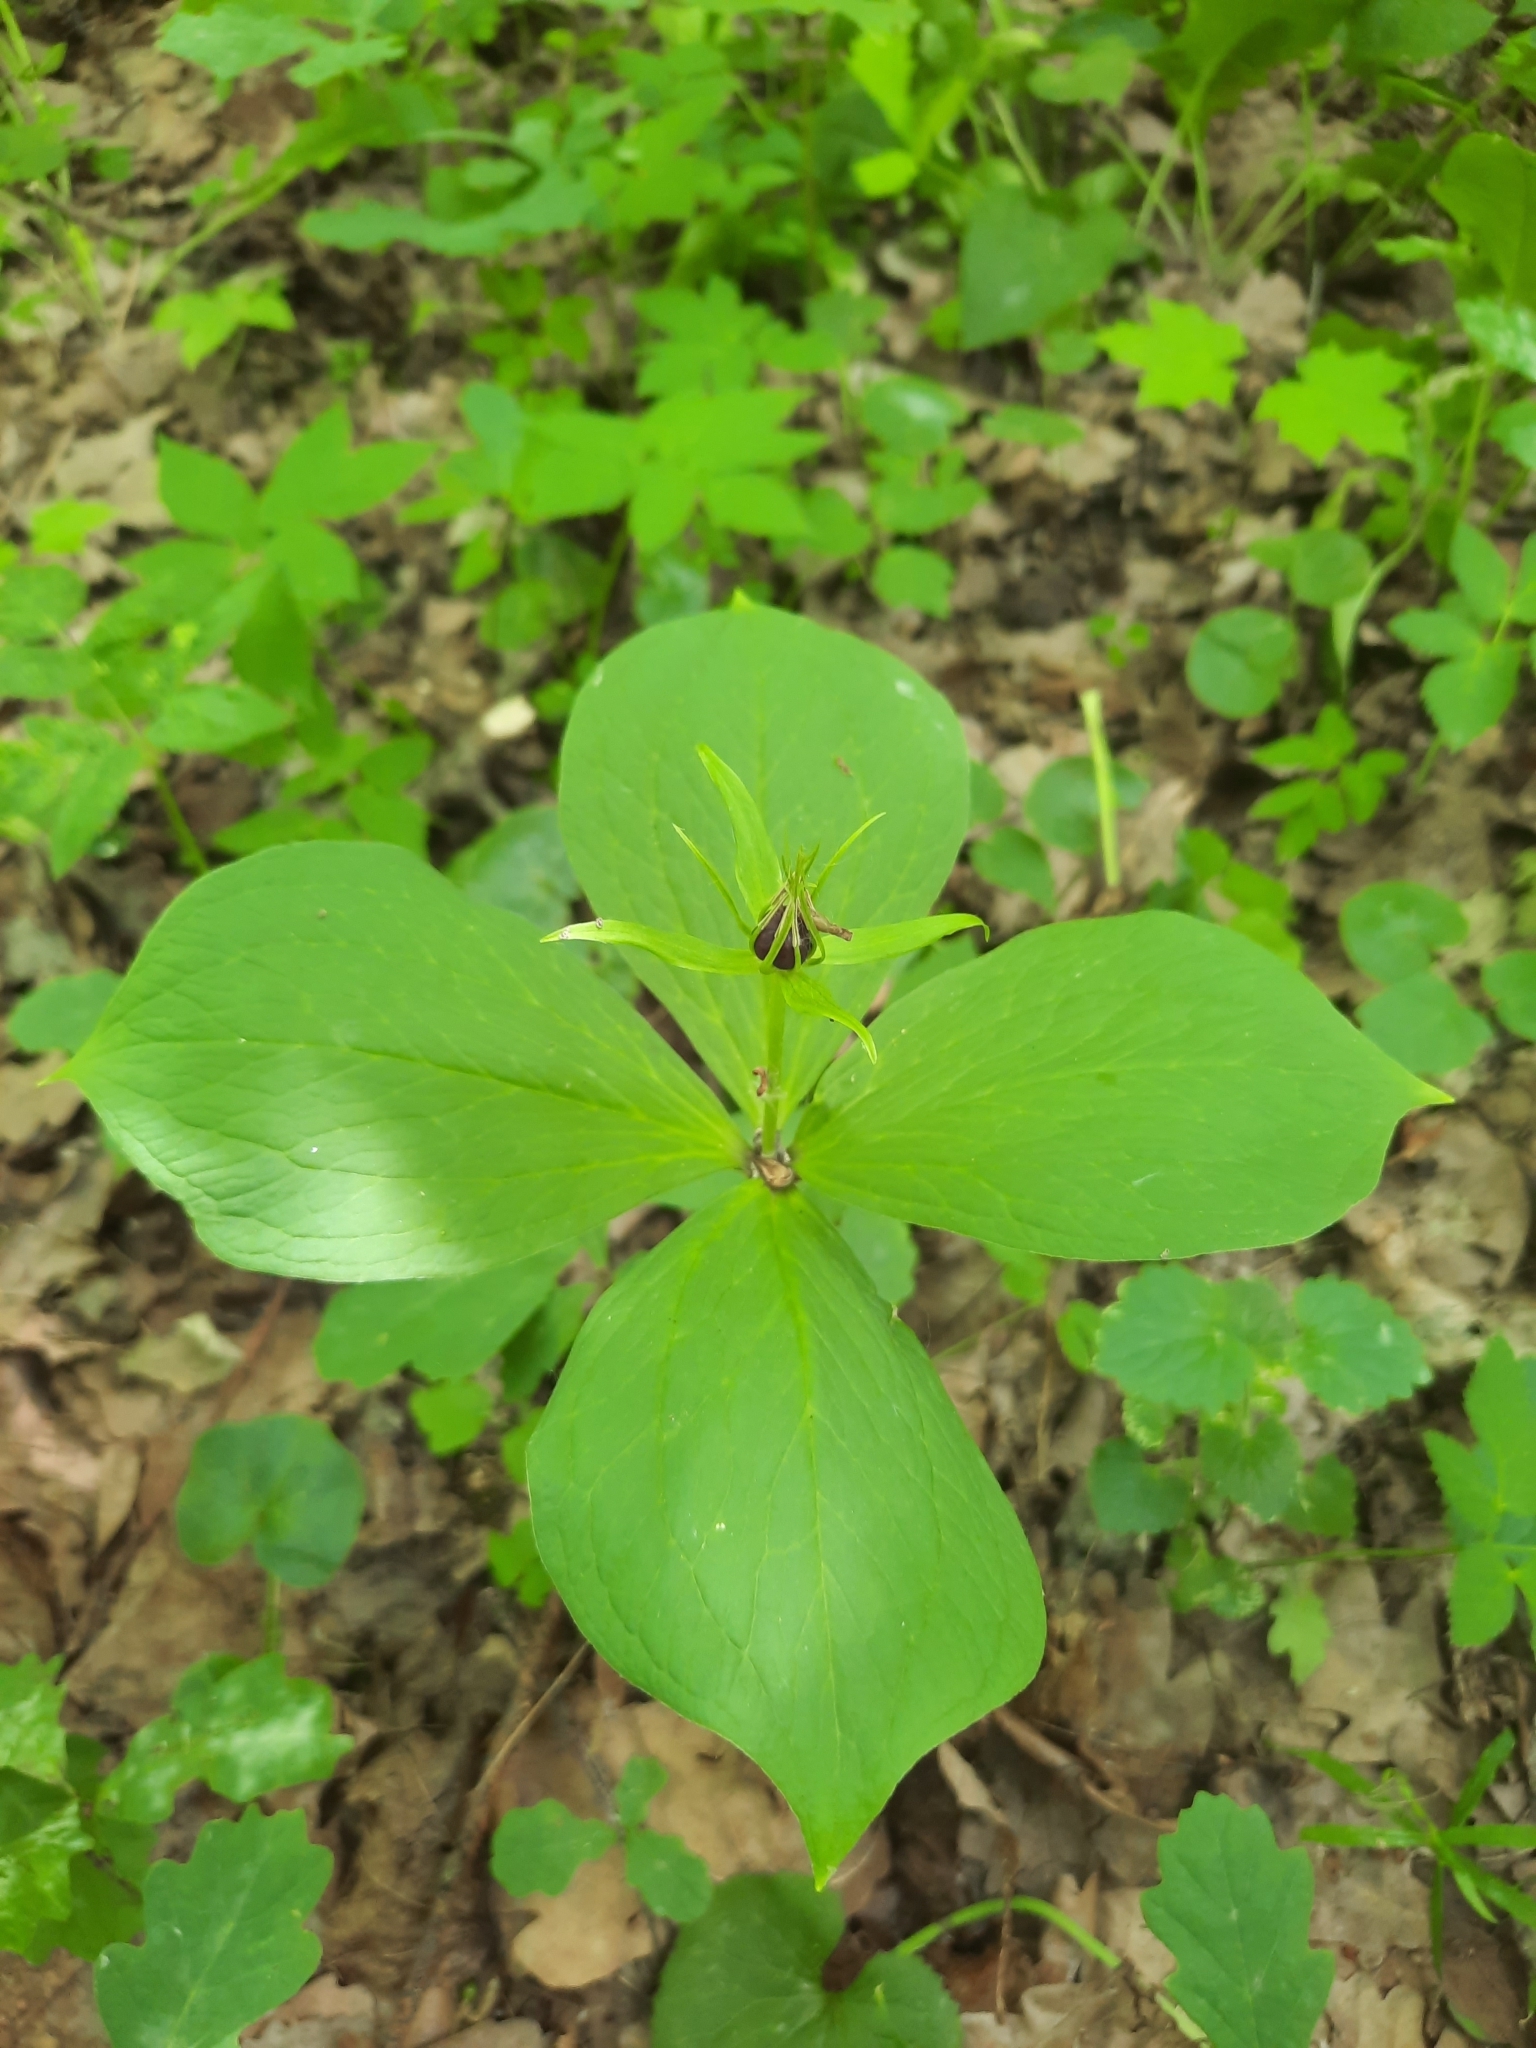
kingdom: Plantae
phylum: Tracheophyta
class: Liliopsida
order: Liliales
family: Melanthiaceae
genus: Paris
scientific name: Paris quadrifolia
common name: Herb-paris
